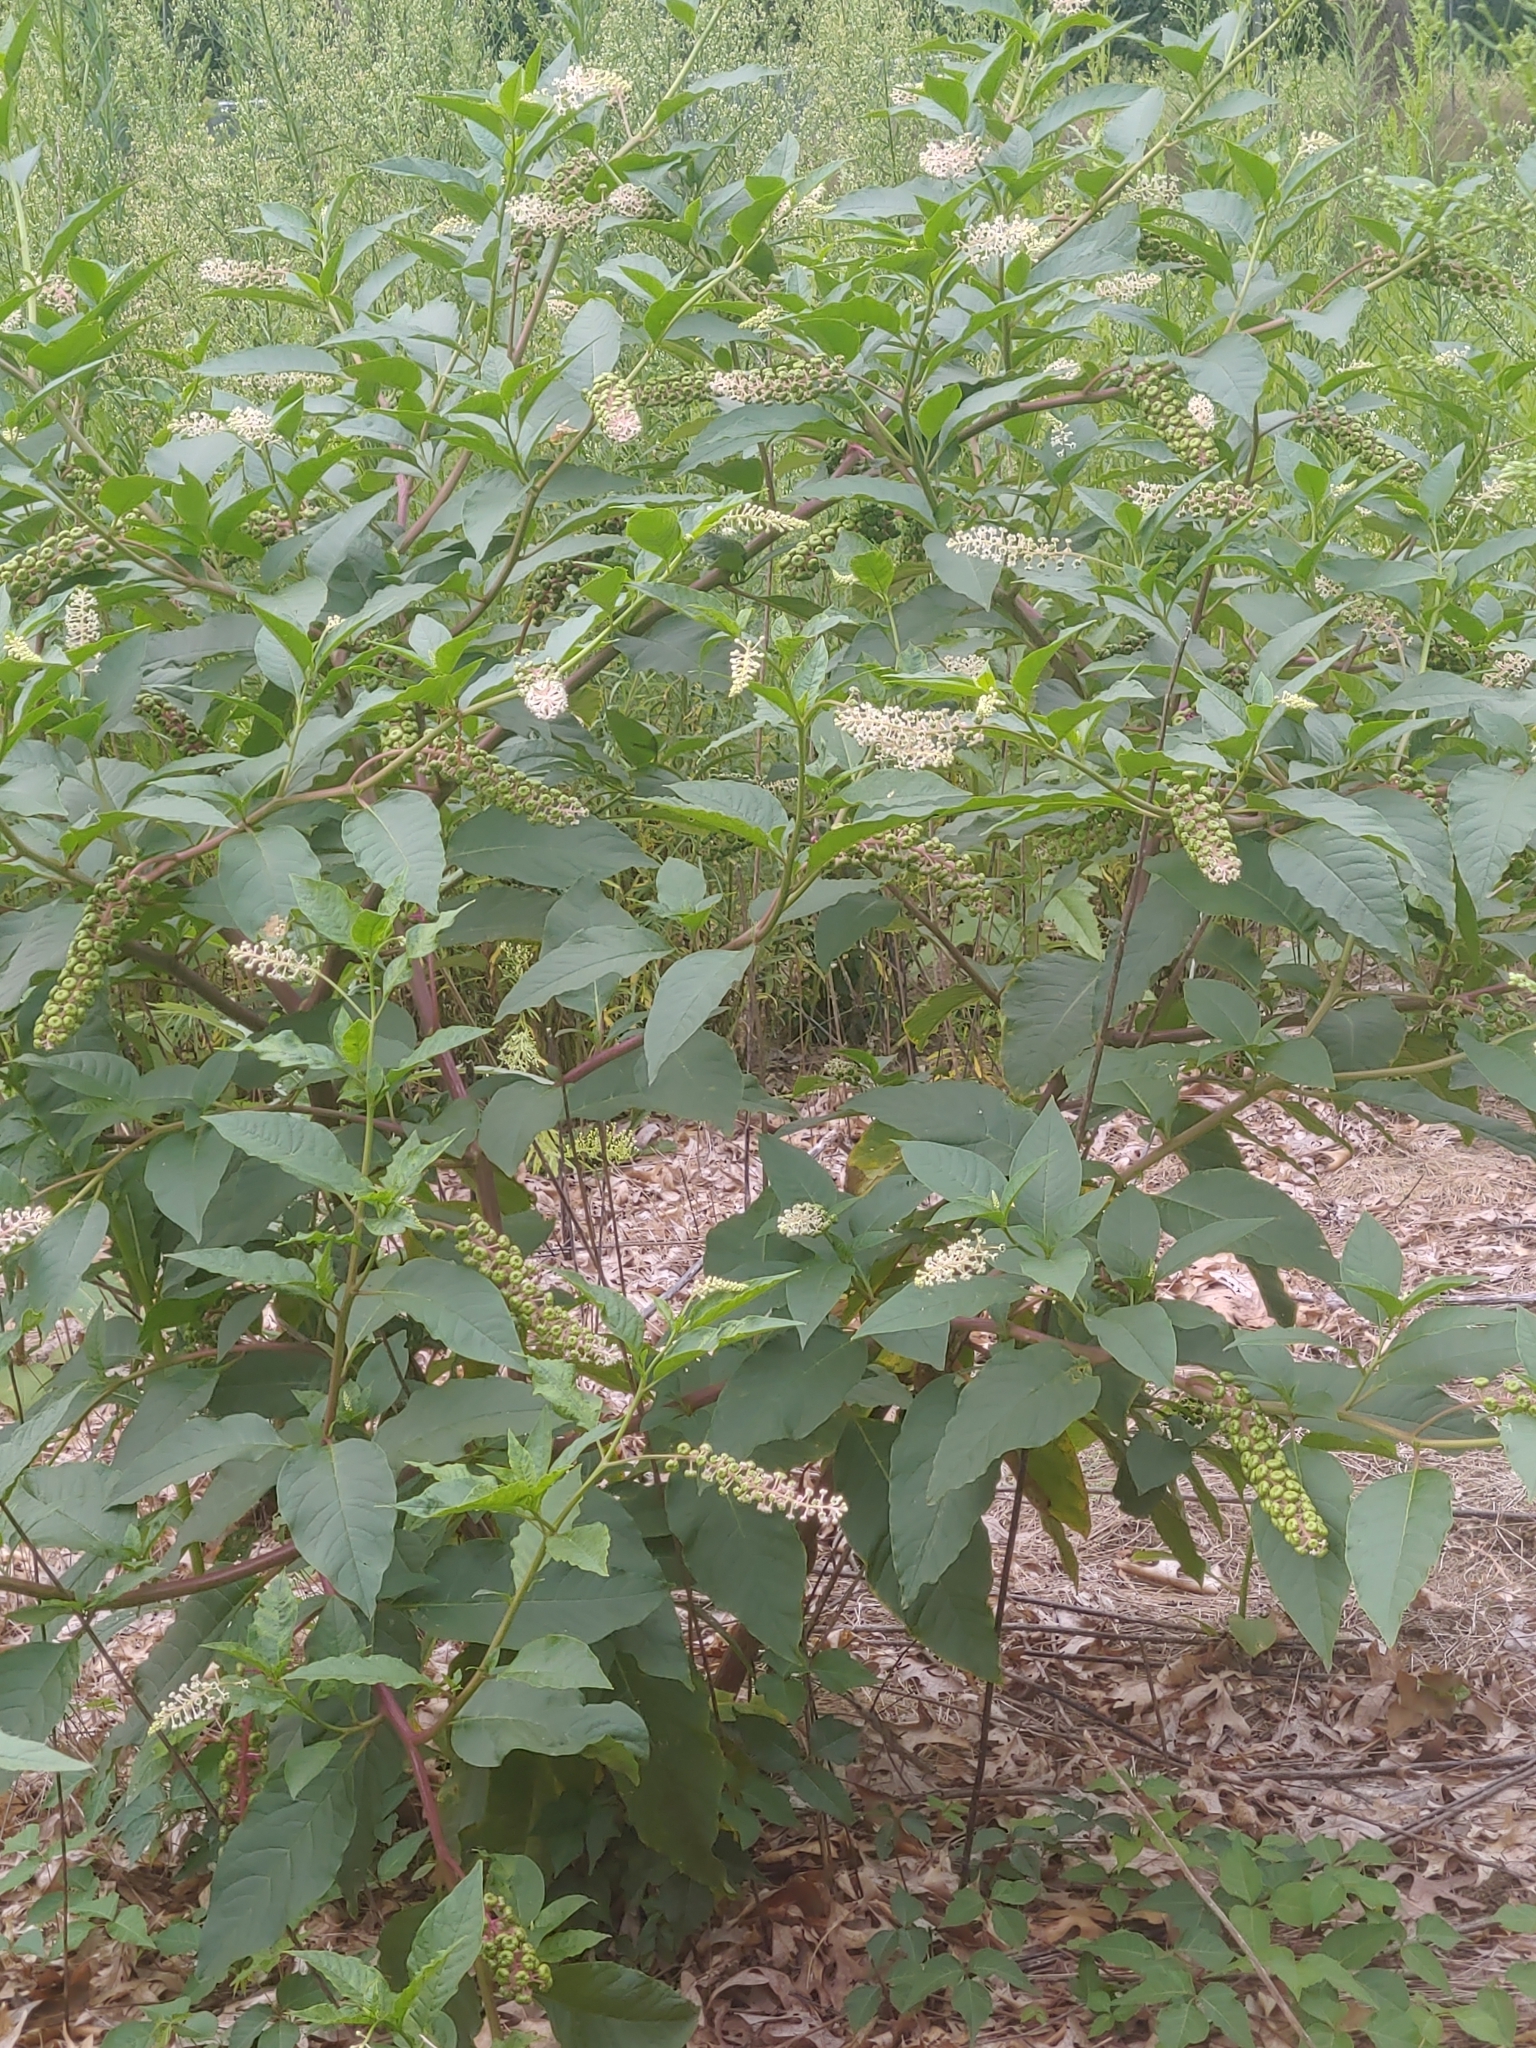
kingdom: Plantae
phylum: Tracheophyta
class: Magnoliopsida
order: Caryophyllales
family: Phytolaccaceae
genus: Phytolacca
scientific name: Phytolacca americana
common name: American pokeweed
